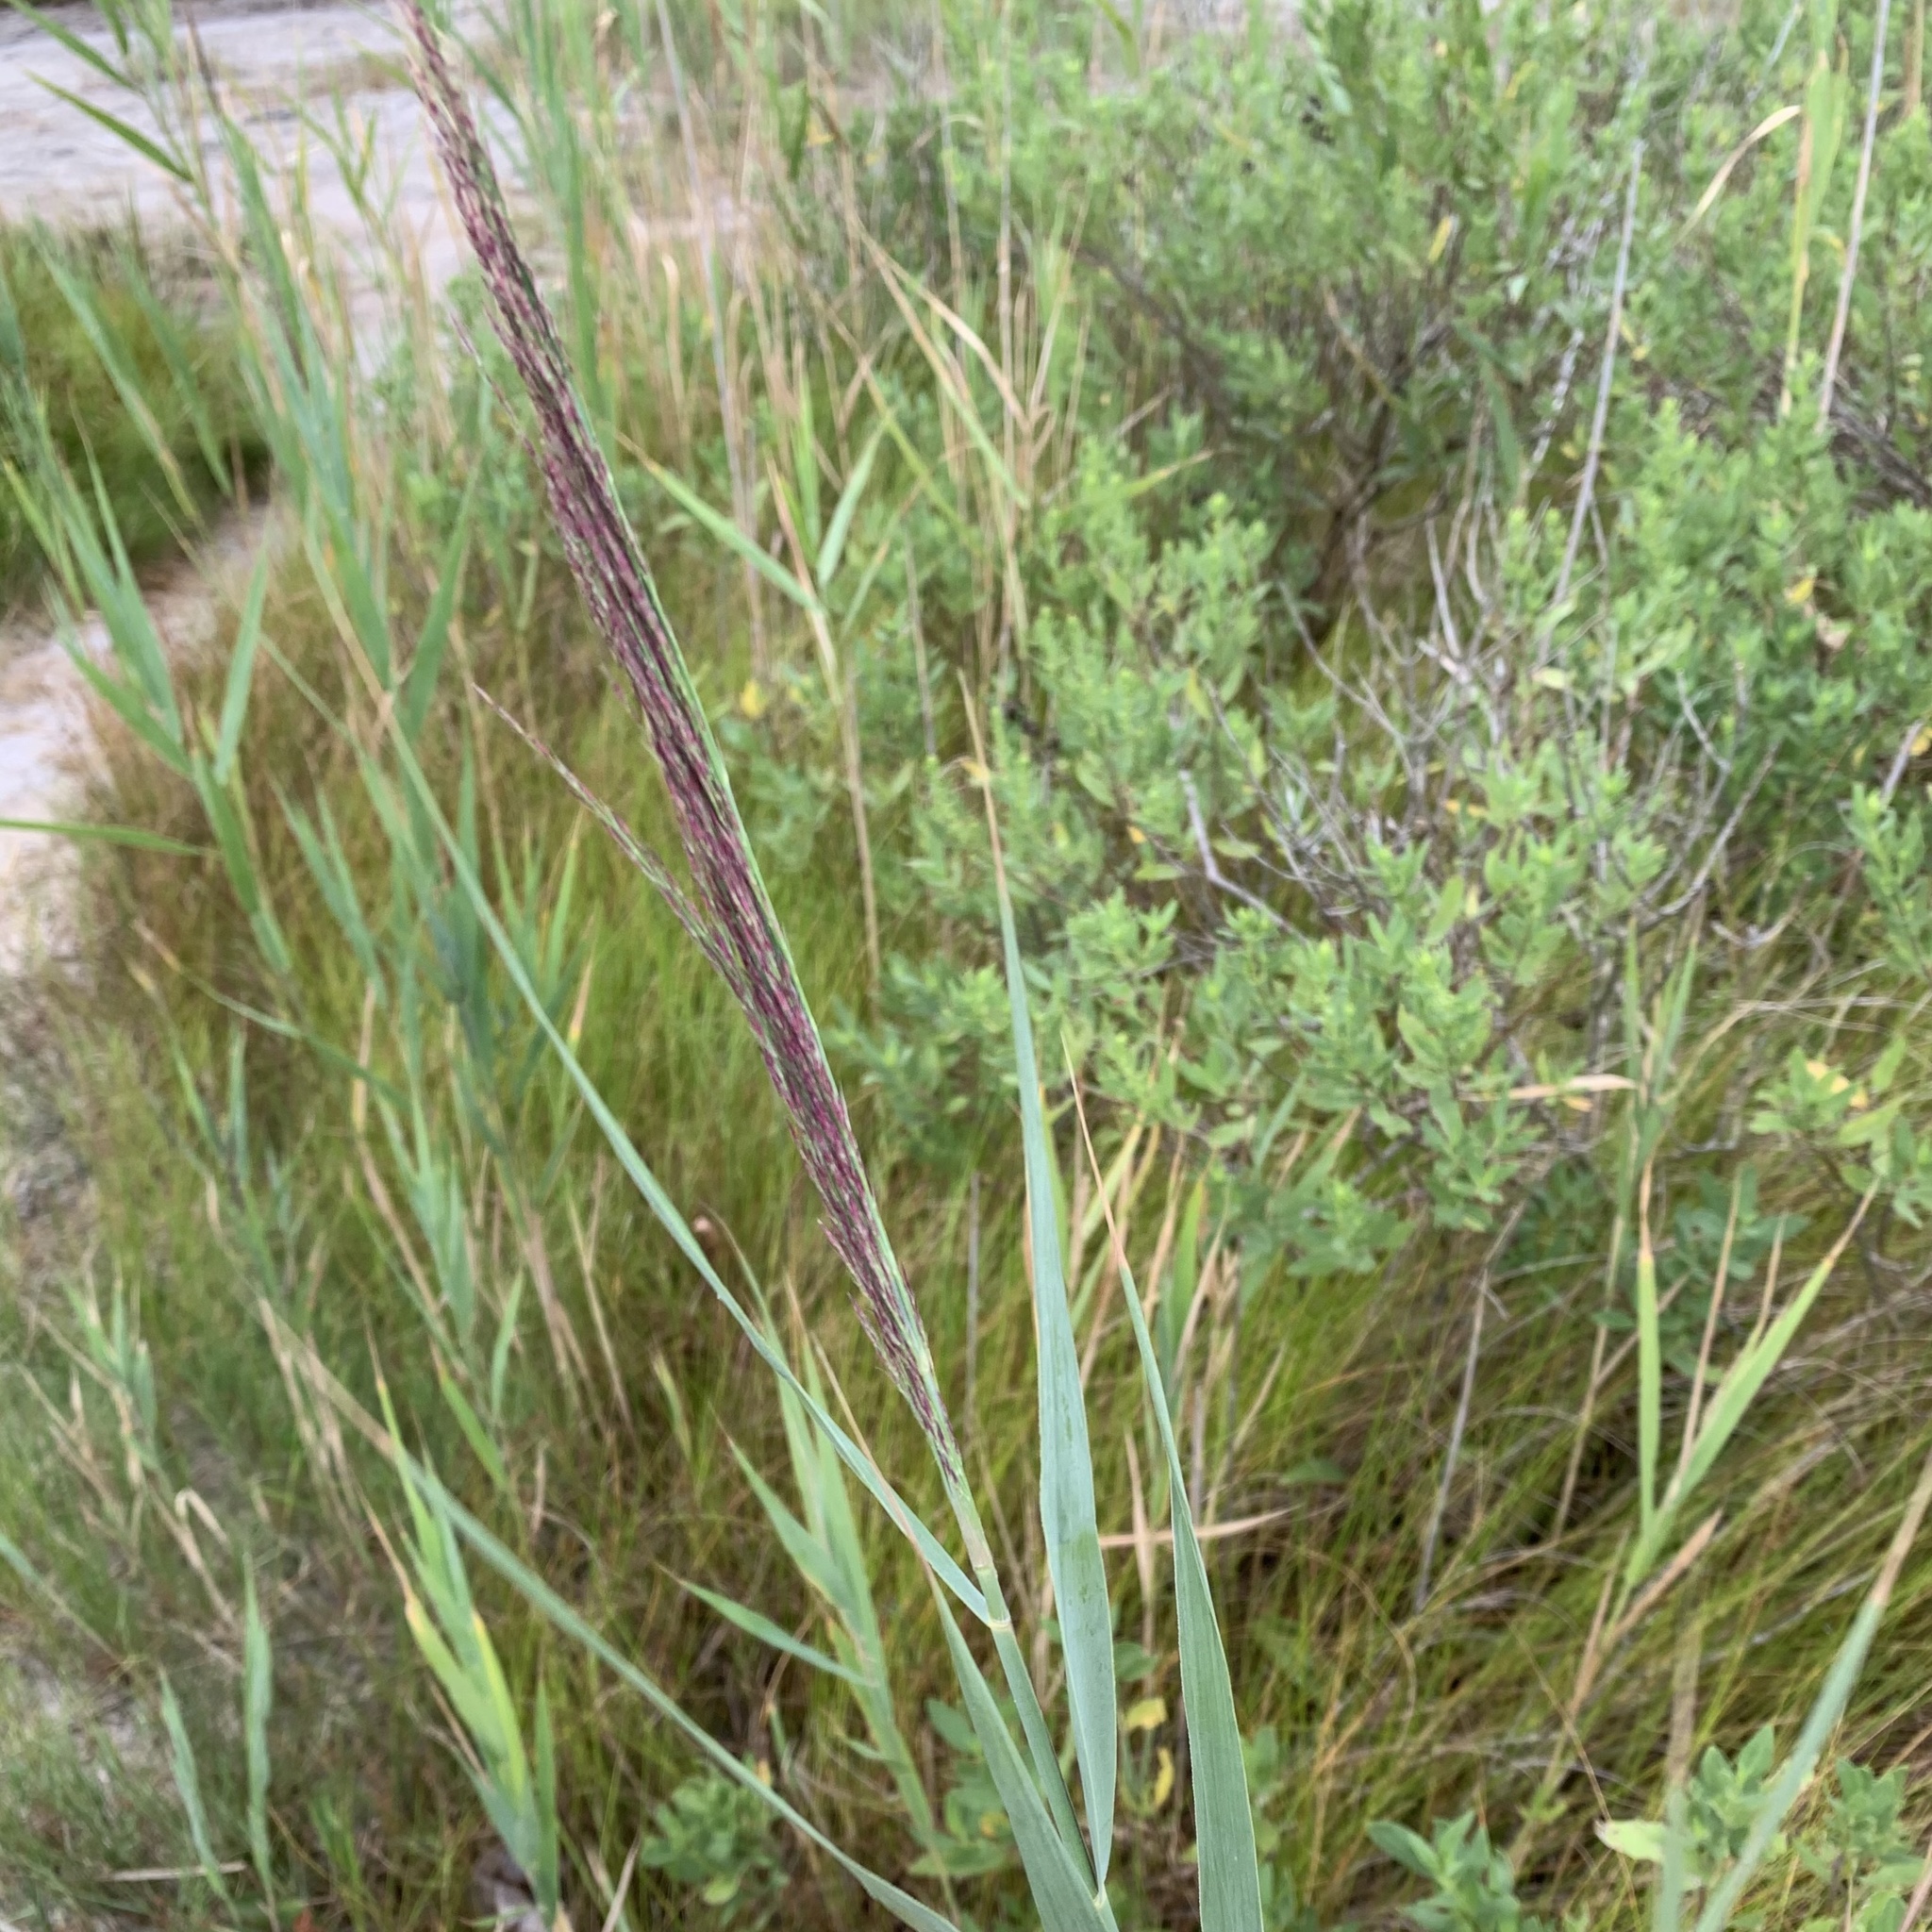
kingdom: Plantae
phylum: Tracheophyta
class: Liliopsida
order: Poales
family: Poaceae
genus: Phragmites
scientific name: Phragmites australis
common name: Common reed
